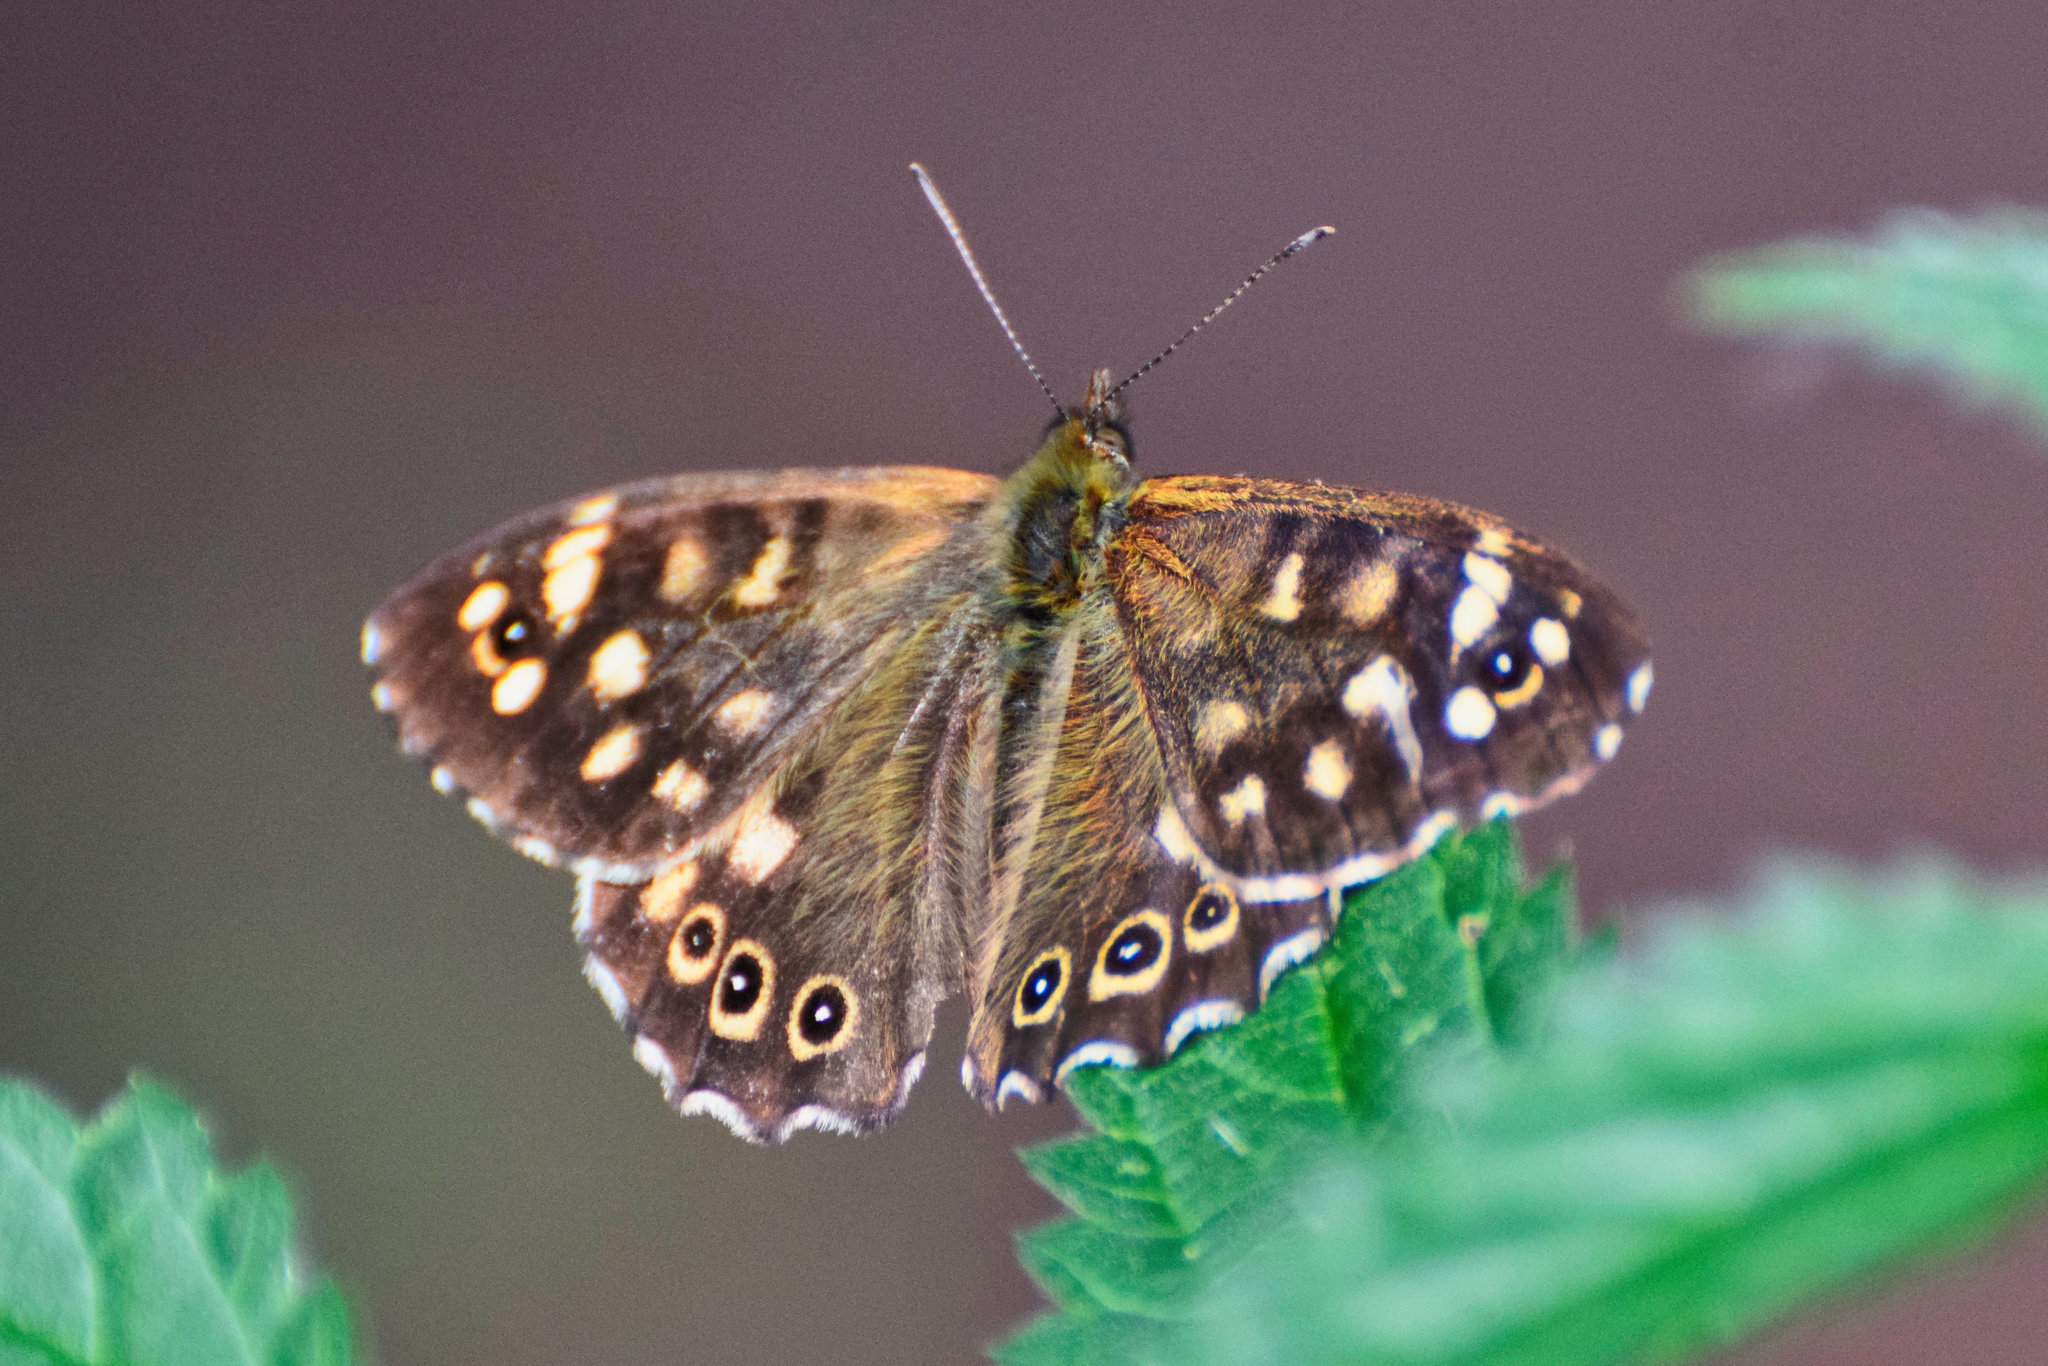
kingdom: Animalia
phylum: Arthropoda
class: Insecta
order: Lepidoptera
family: Nymphalidae
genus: Pararge
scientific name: Pararge aegeria
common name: Speckled wood
